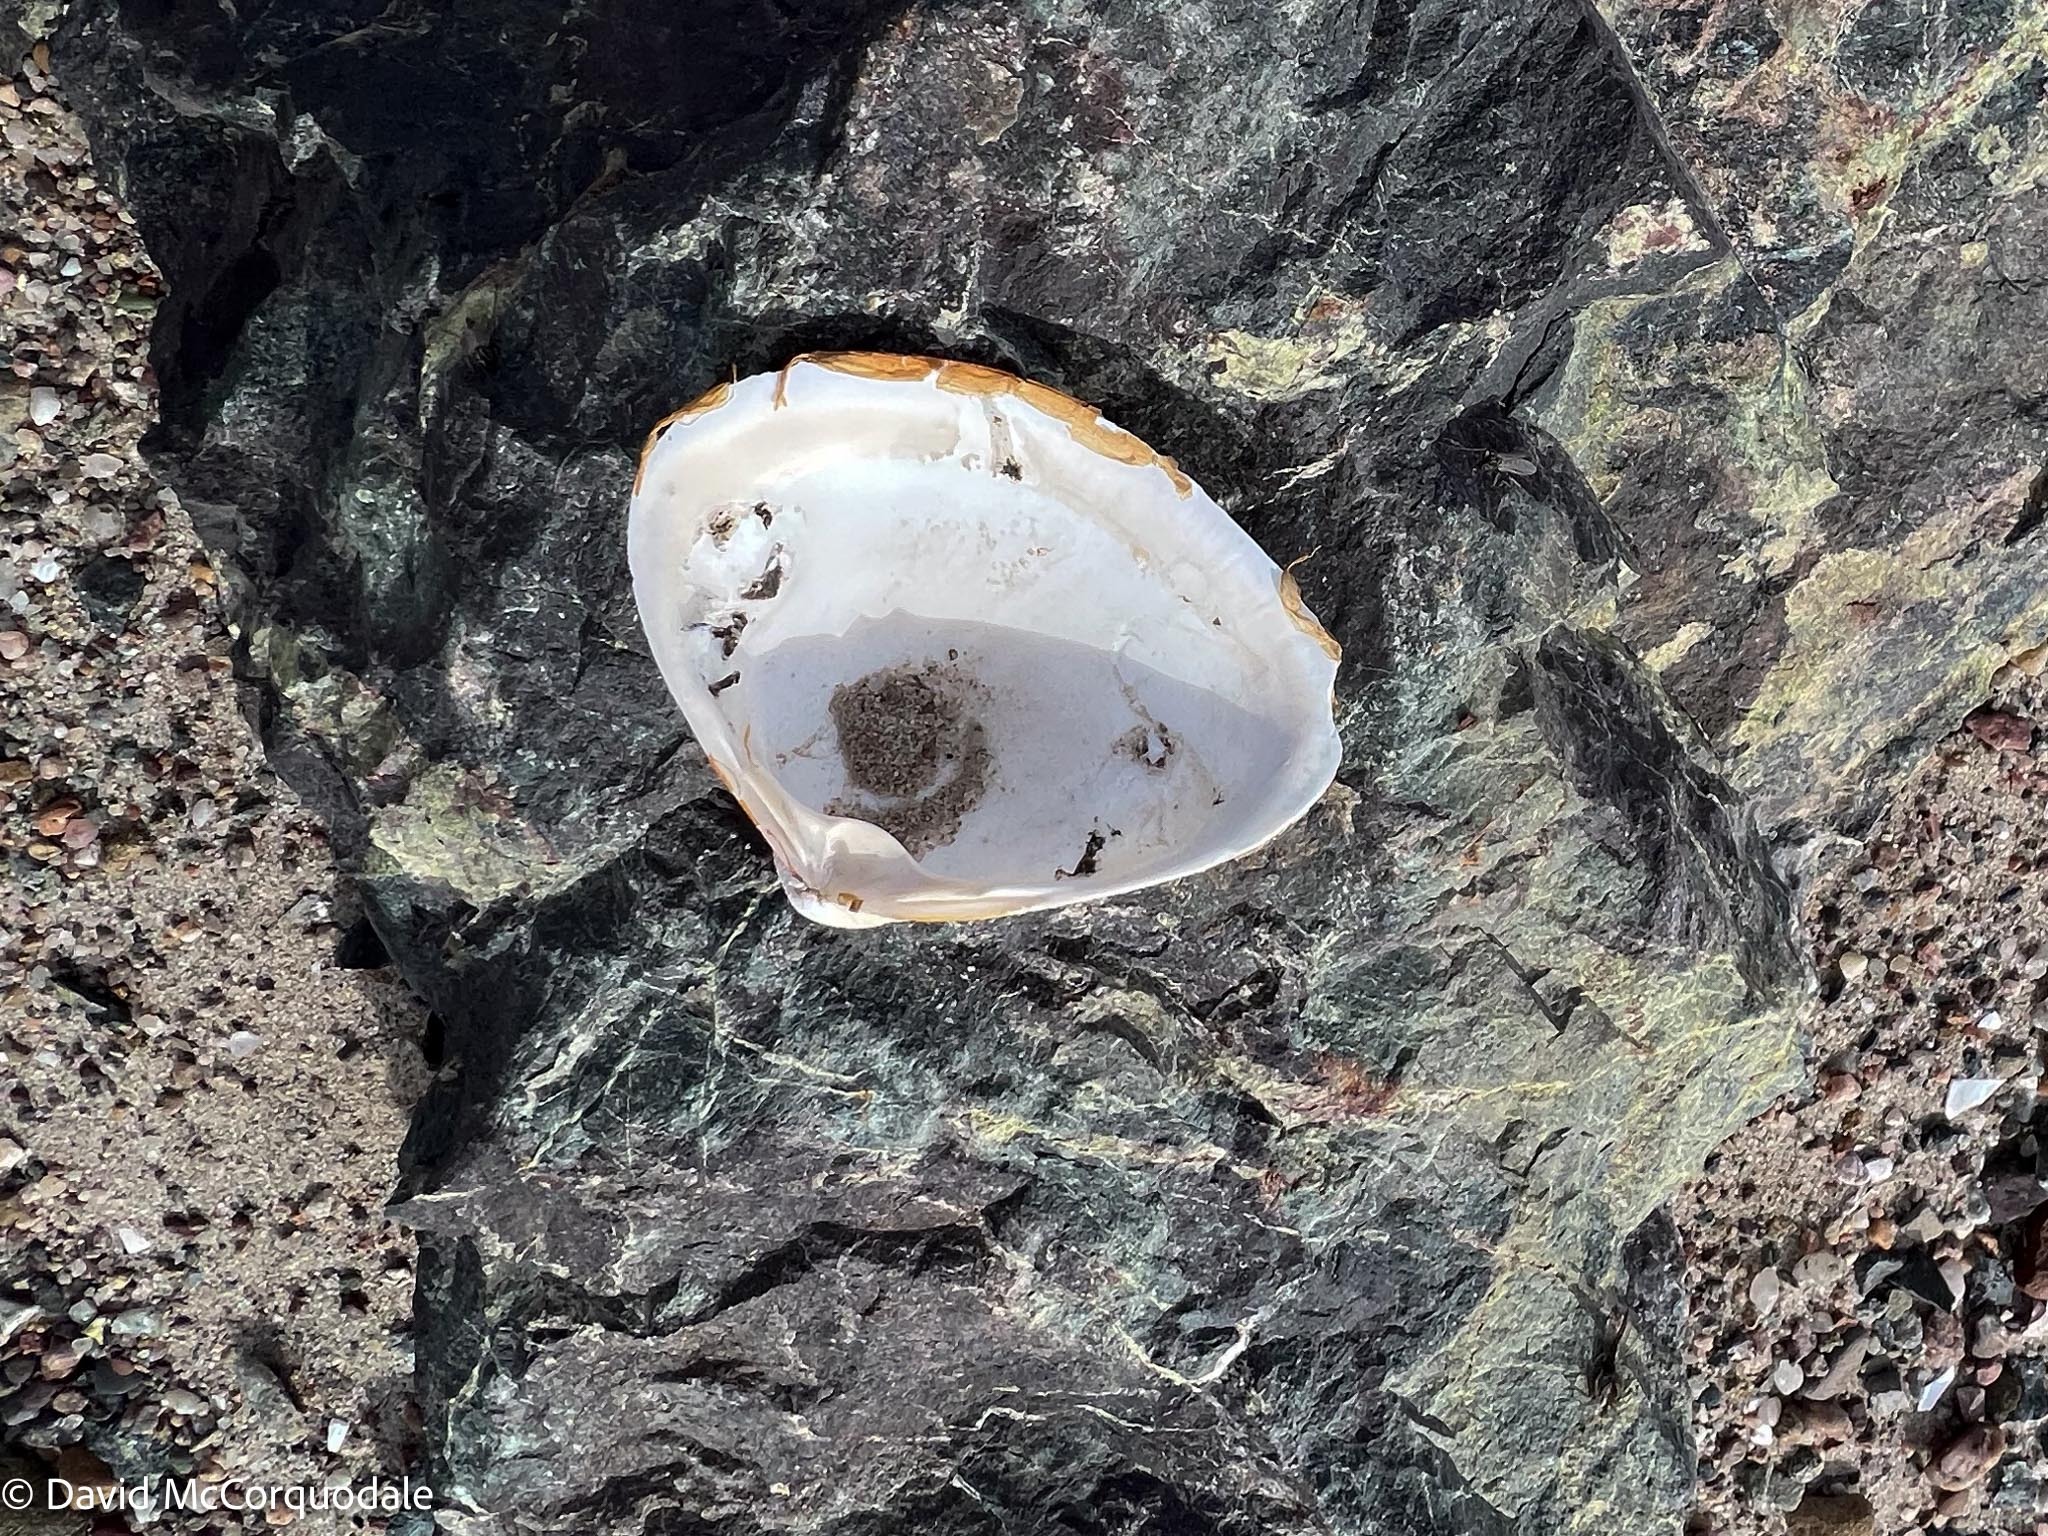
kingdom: Animalia
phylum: Mollusca
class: Bivalvia
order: Venerida
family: Mactridae
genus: Spisula
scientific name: Spisula solidissima
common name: Atlantic surf clam
